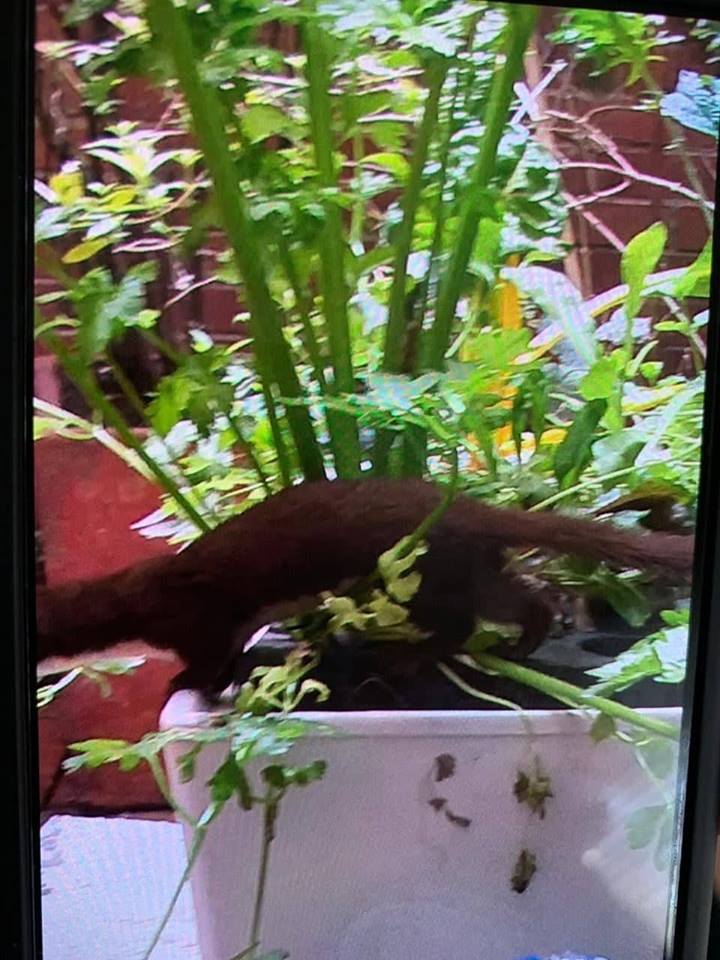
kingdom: Animalia
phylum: Chordata
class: Mammalia
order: Carnivora
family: Mustelidae
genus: Mustela
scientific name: Mustela
